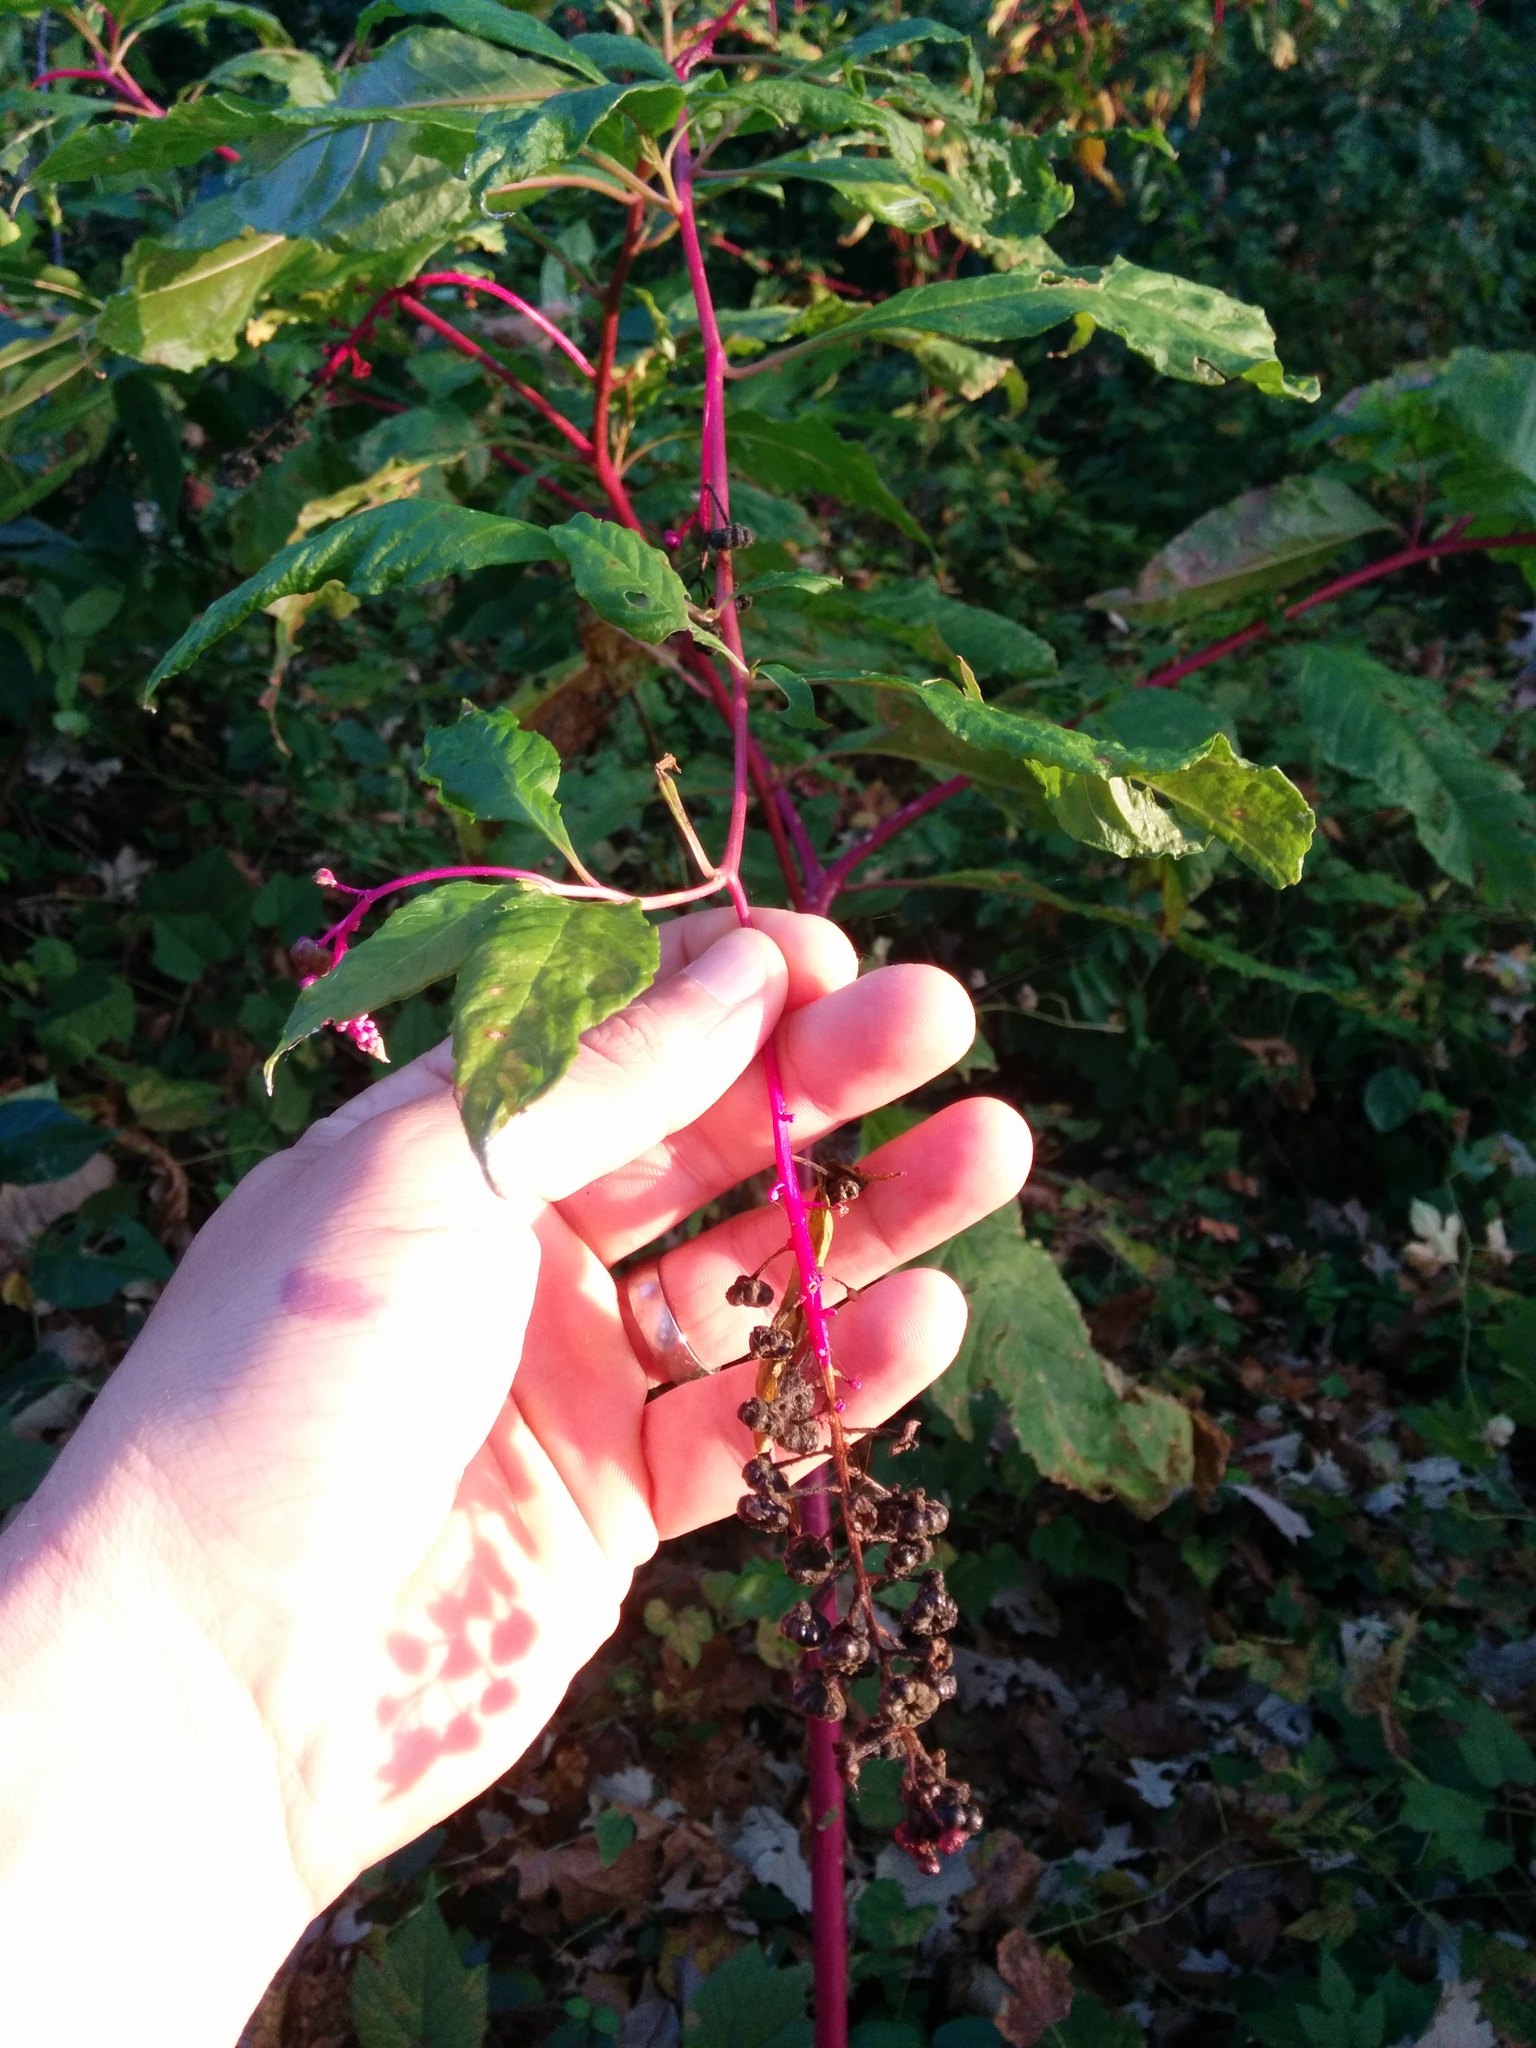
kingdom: Plantae
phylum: Tracheophyta
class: Magnoliopsida
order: Caryophyllales
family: Phytolaccaceae
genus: Phytolacca
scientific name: Phytolacca americana
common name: American pokeweed
